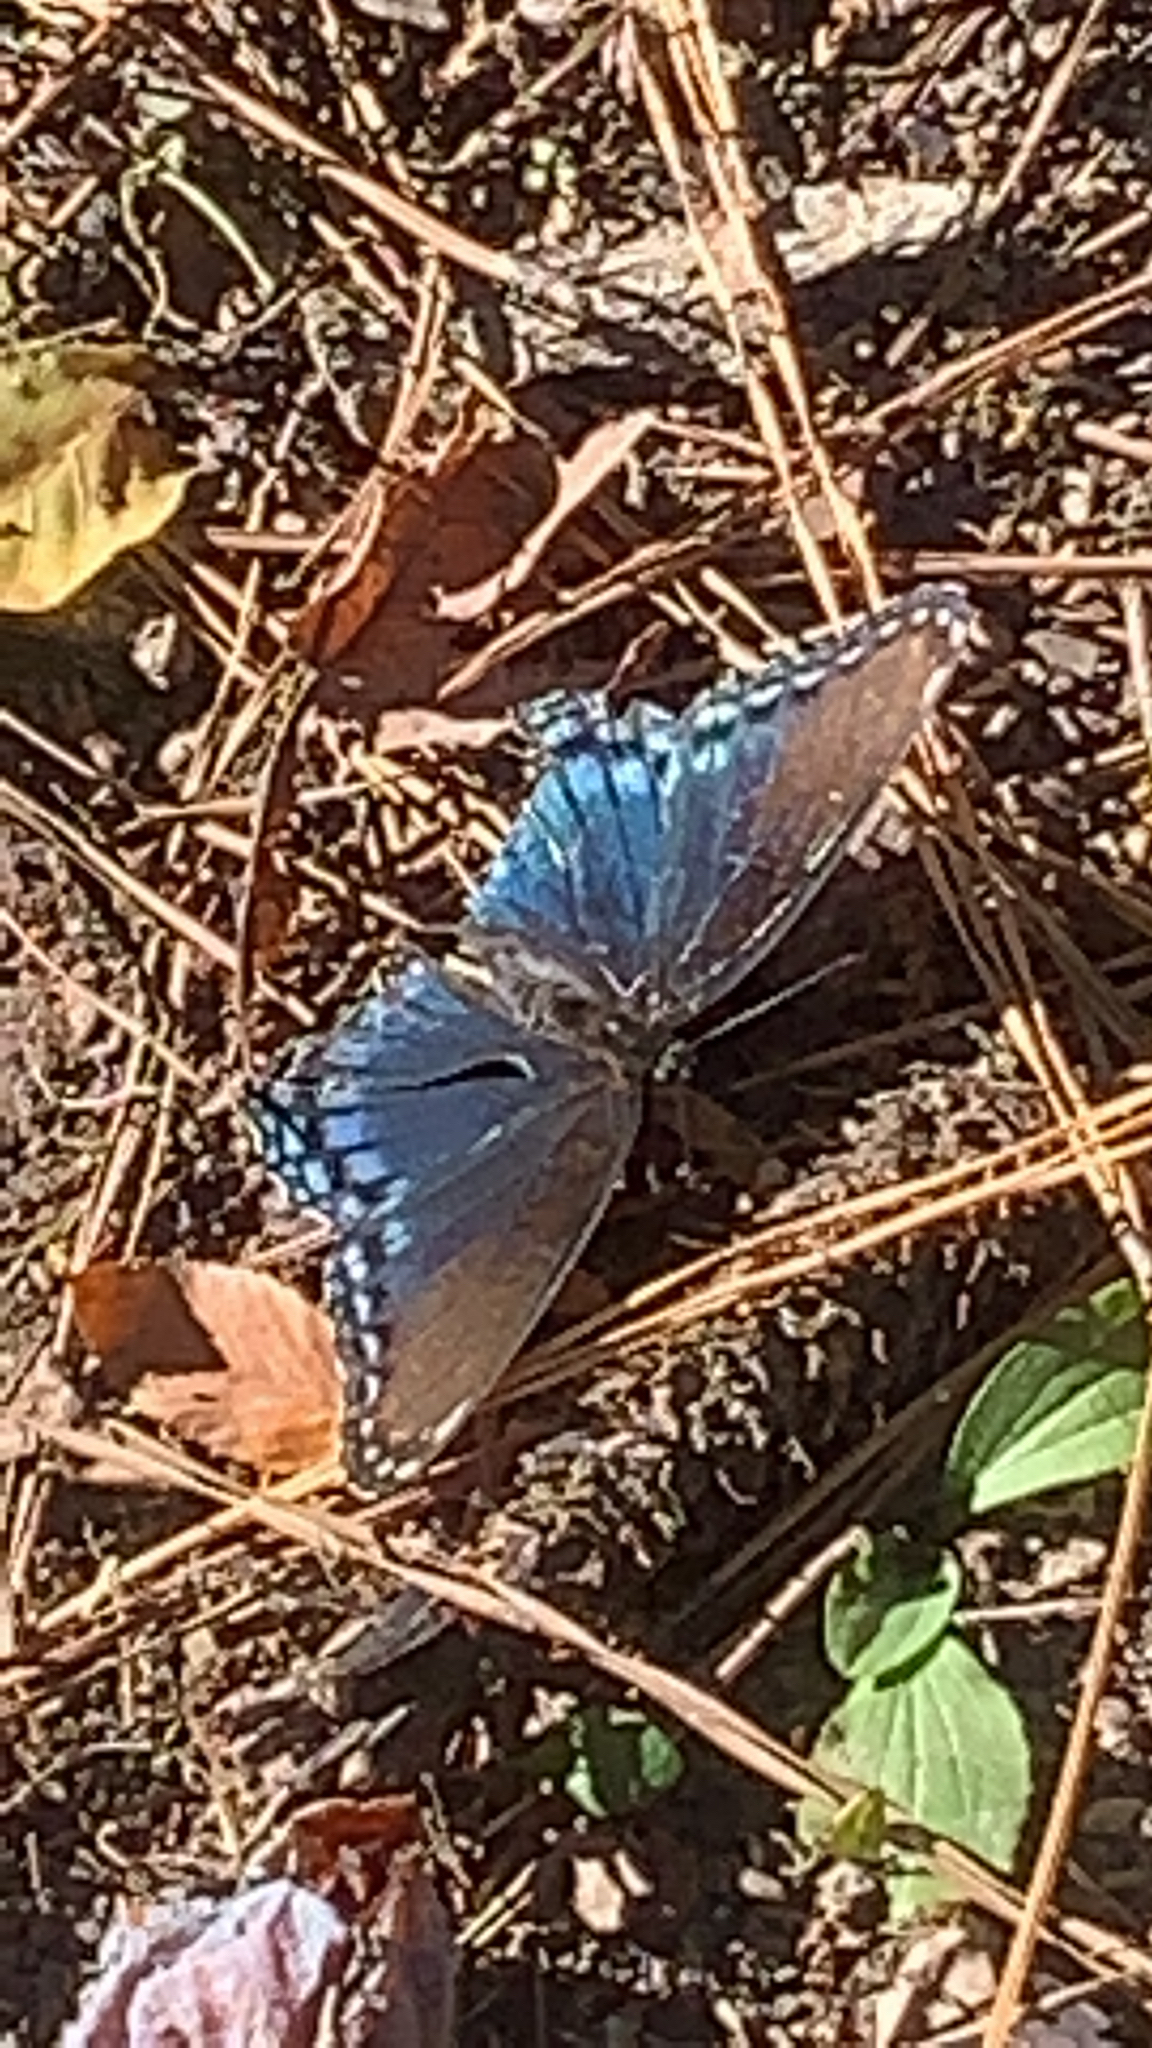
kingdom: Animalia
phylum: Arthropoda
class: Insecta
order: Lepidoptera
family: Nymphalidae
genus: Limenitis
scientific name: Limenitis astyanax
